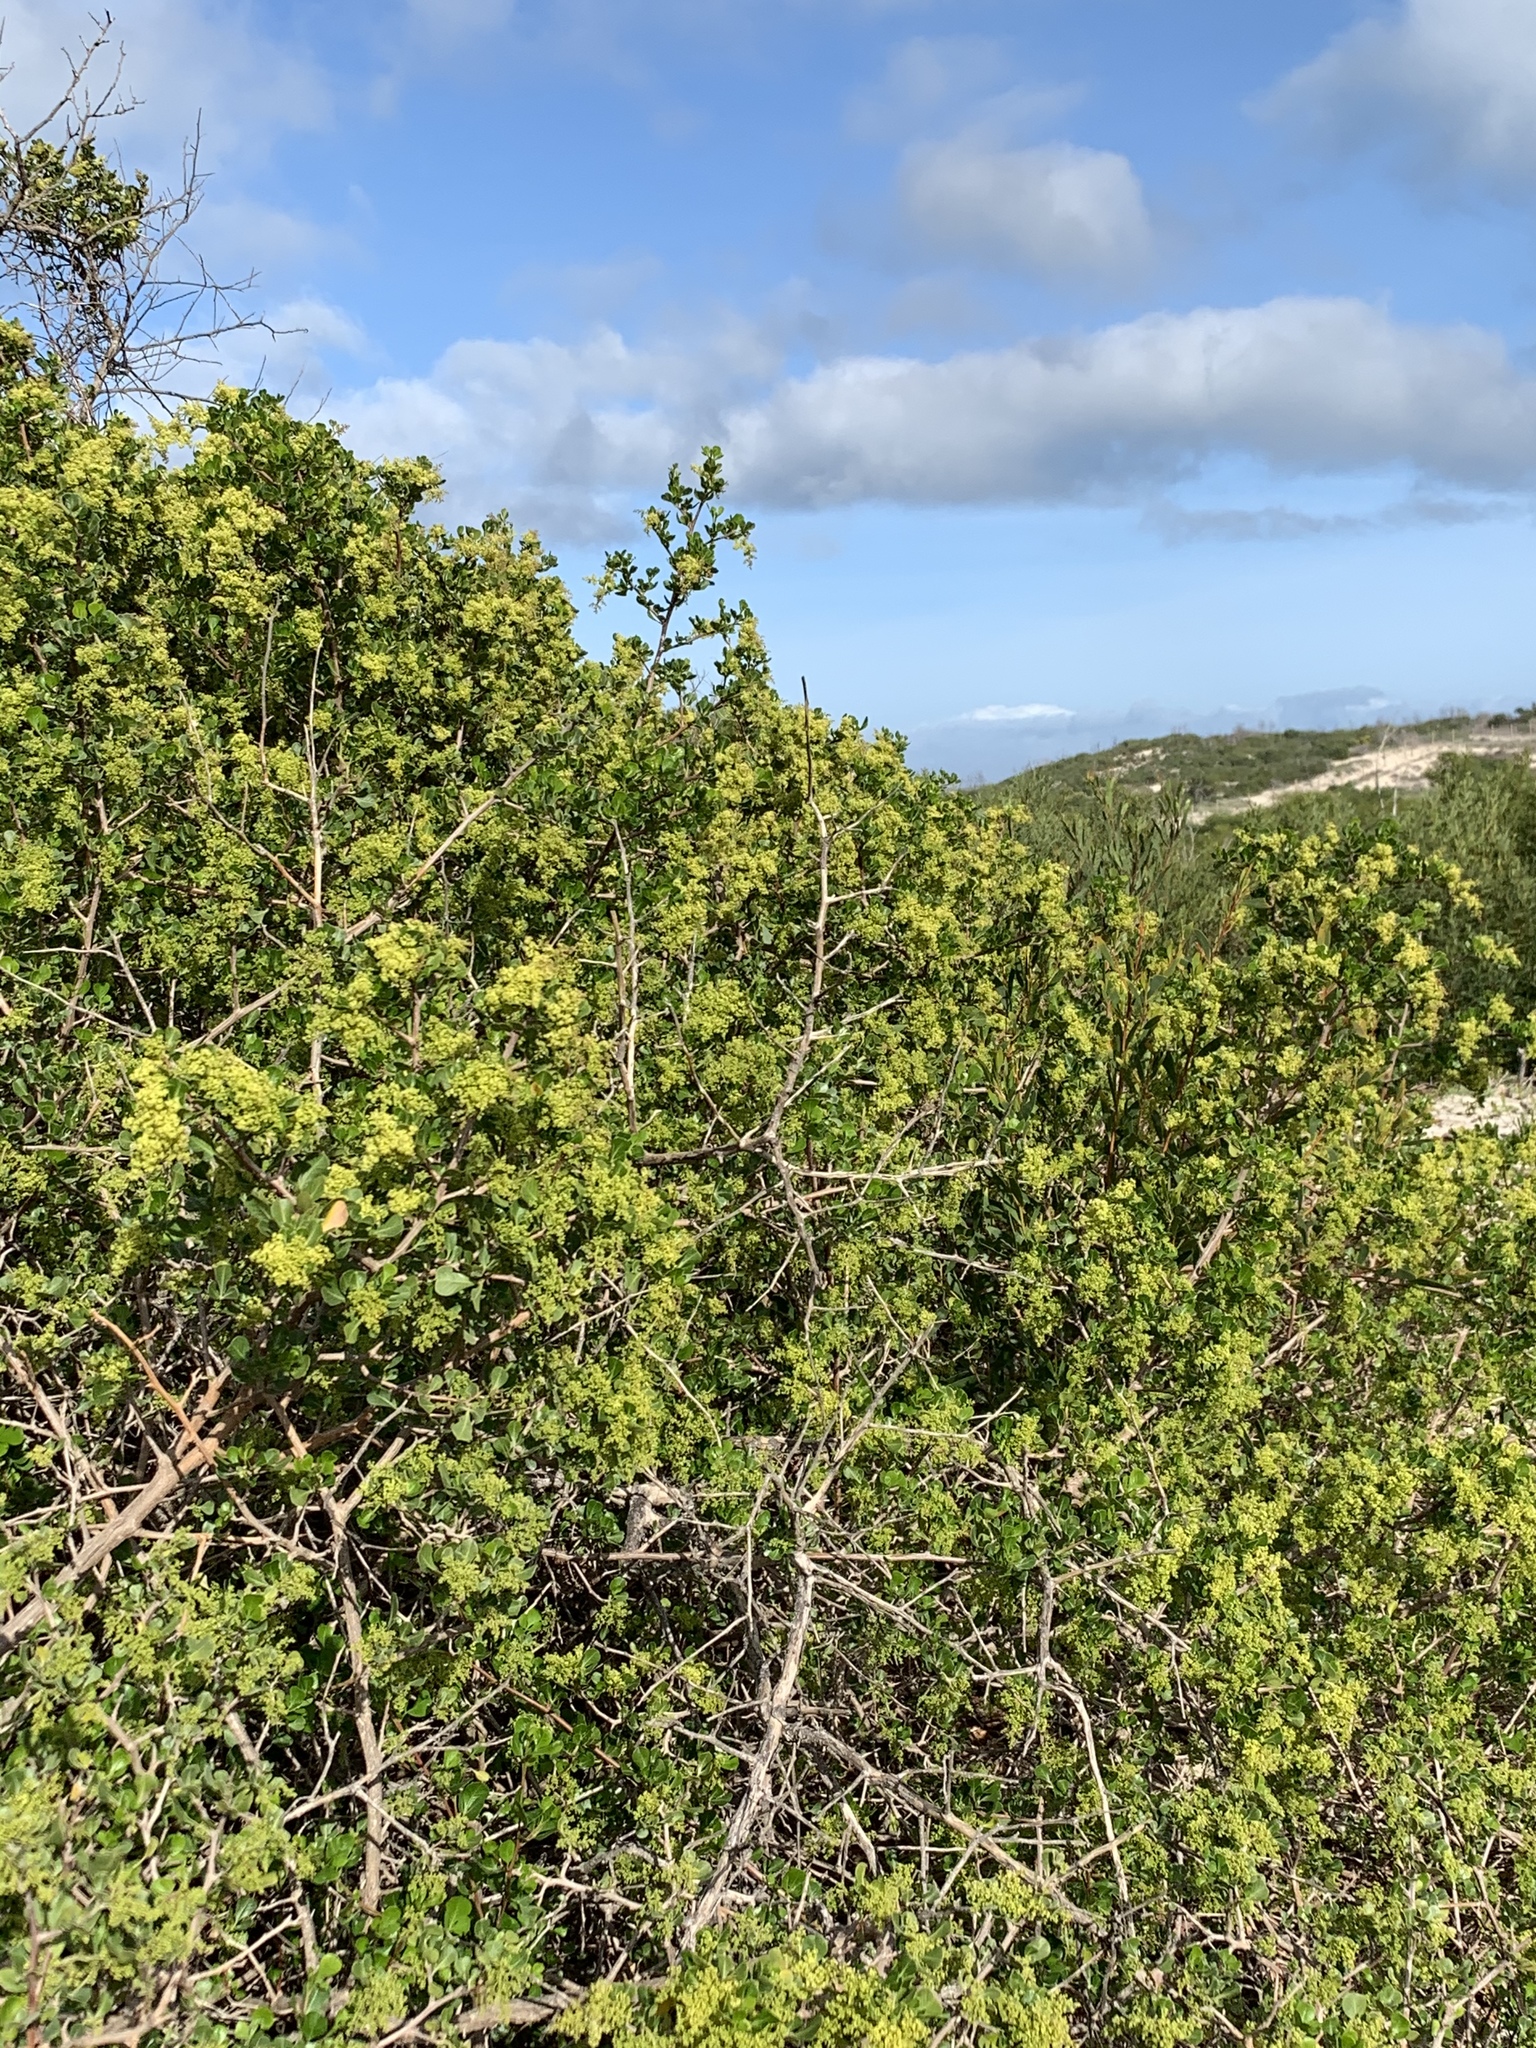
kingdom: Plantae
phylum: Tracheophyta
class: Magnoliopsida
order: Sapindales
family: Anacardiaceae
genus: Searsia
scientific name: Searsia glauca
